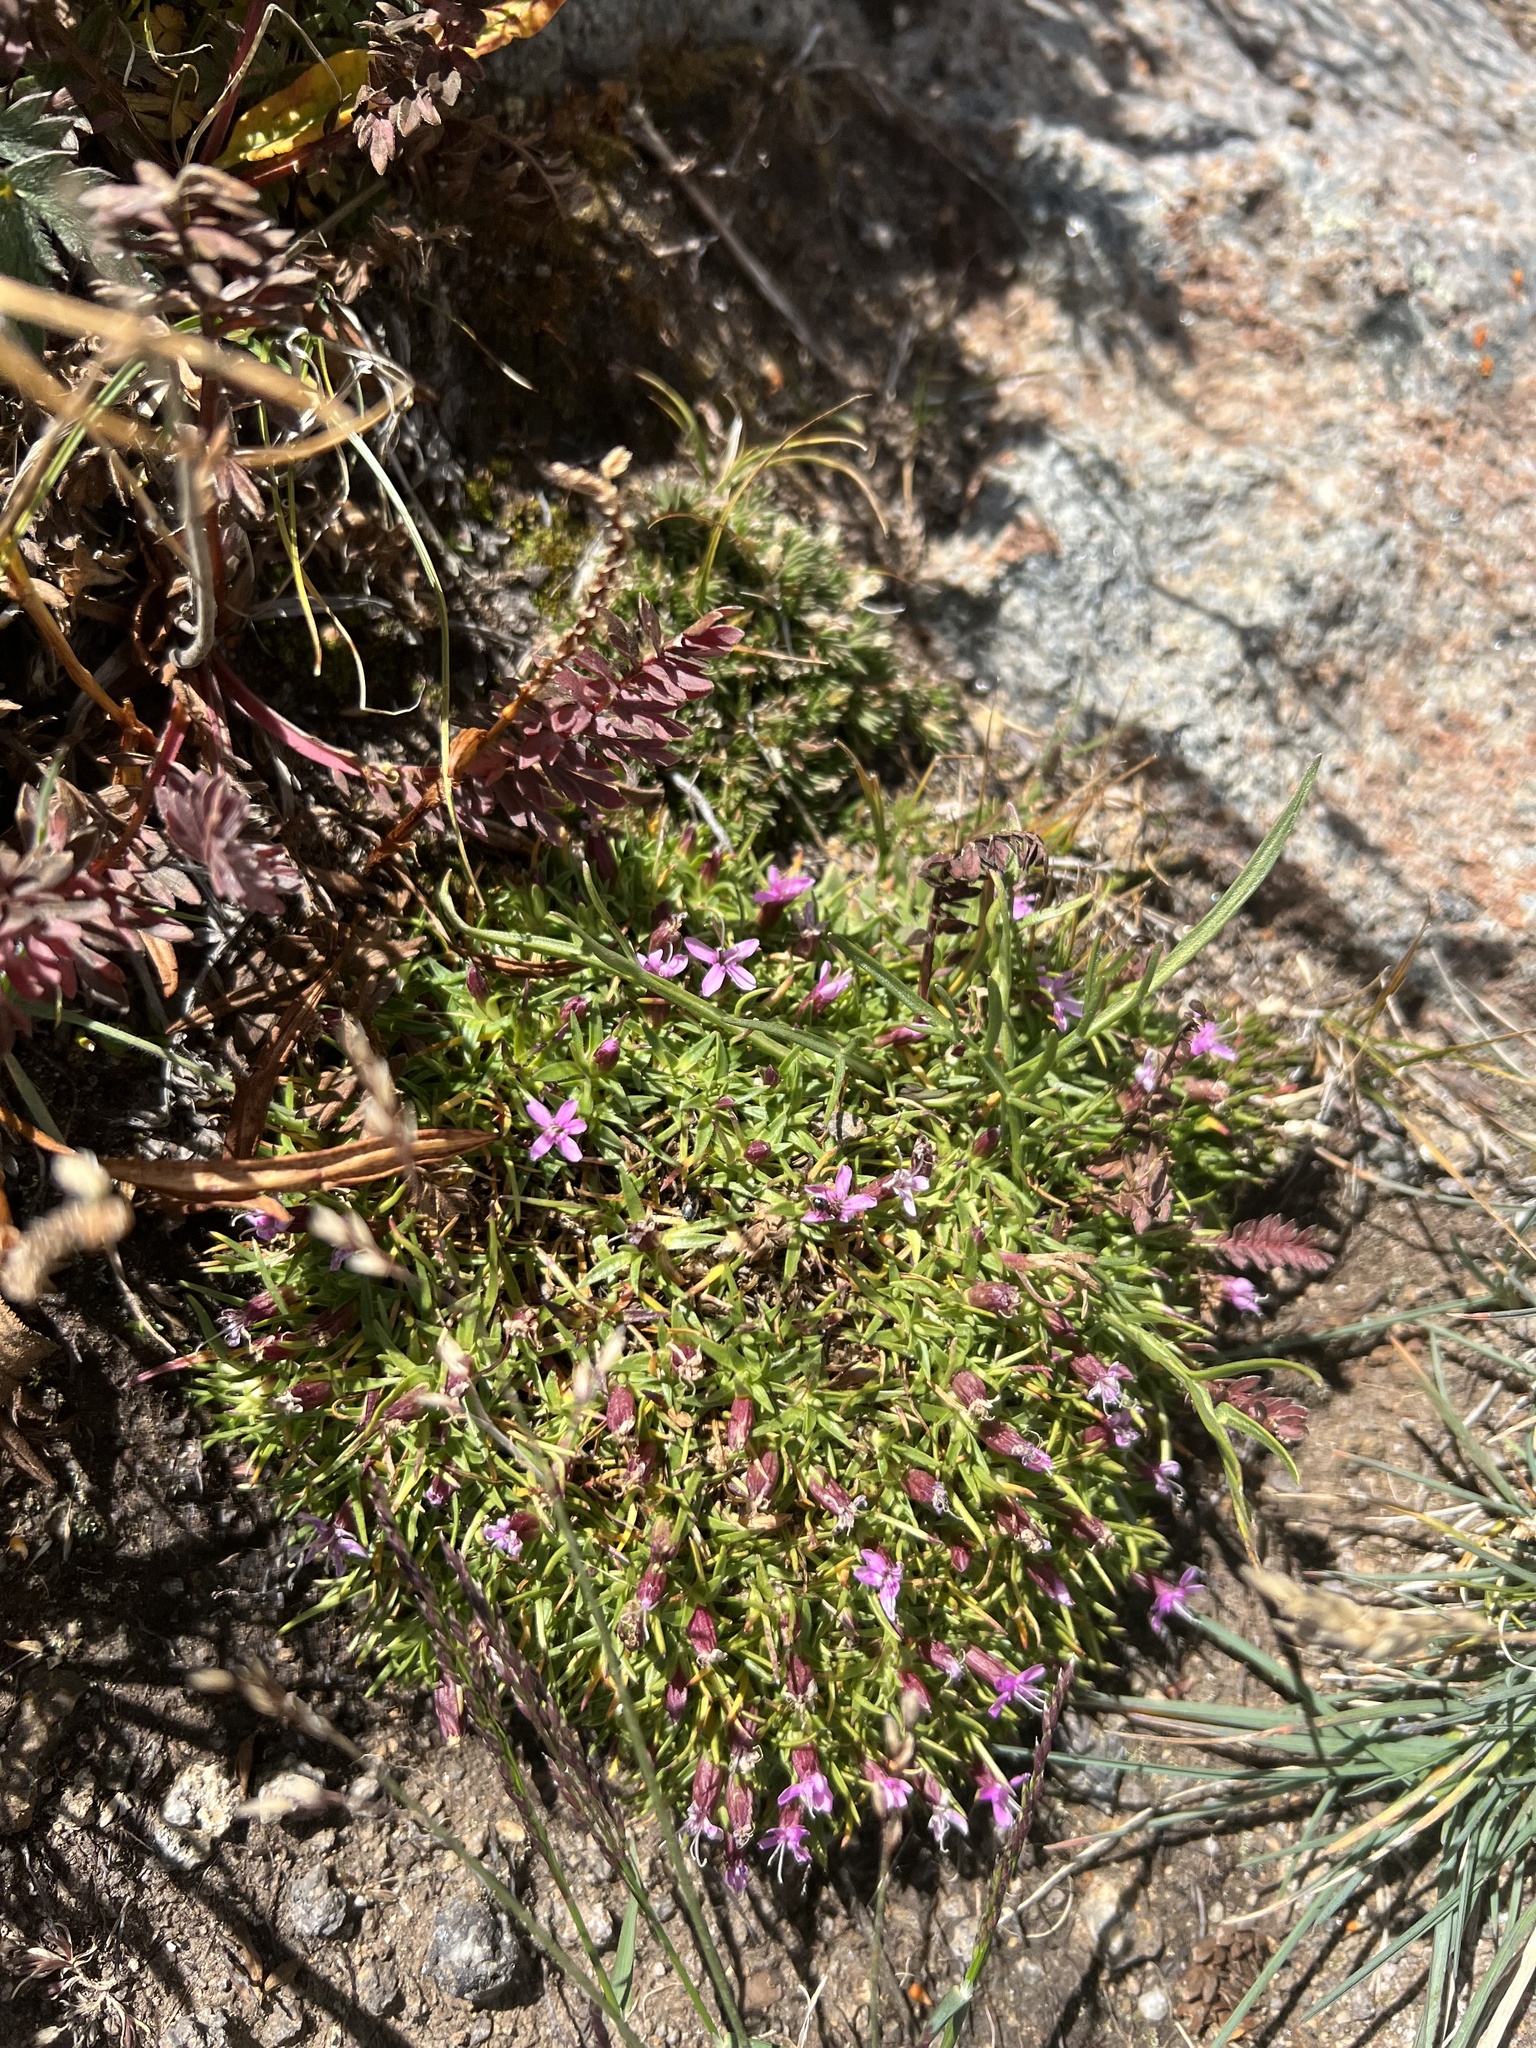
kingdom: Plantae
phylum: Tracheophyta
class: Magnoliopsida
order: Caryophyllales
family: Caryophyllaceae
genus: Silene
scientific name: Silene acaulis
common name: Moss campion
